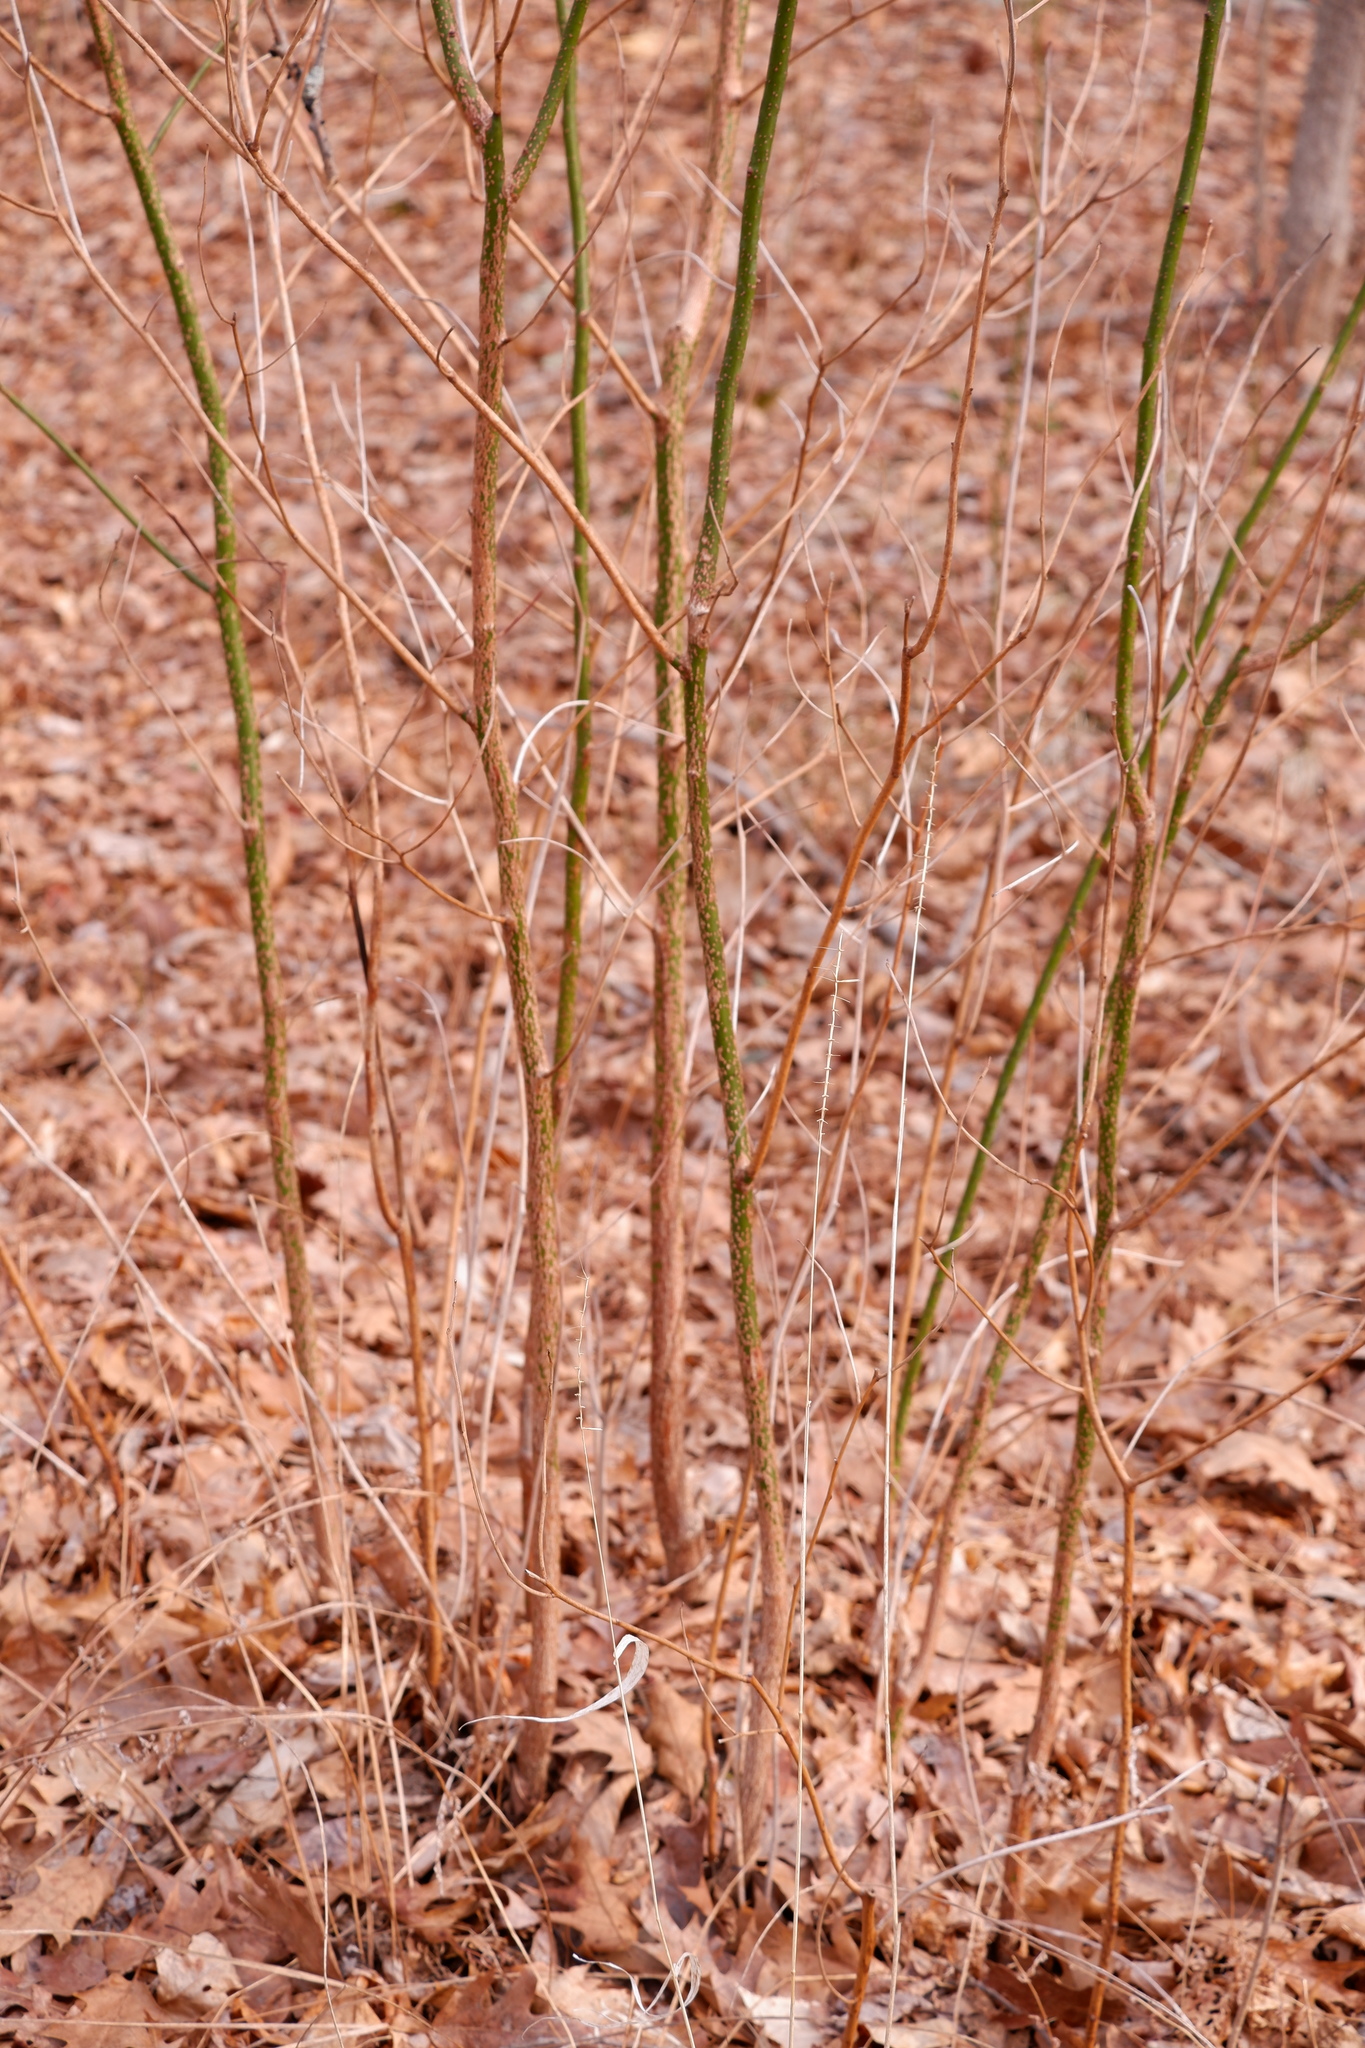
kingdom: Plantae
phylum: Tracheophyta
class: Magnoliopsida
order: Laurales
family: Lauraceae
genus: Sassafras
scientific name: Sassafras albidum
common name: Sassafras
